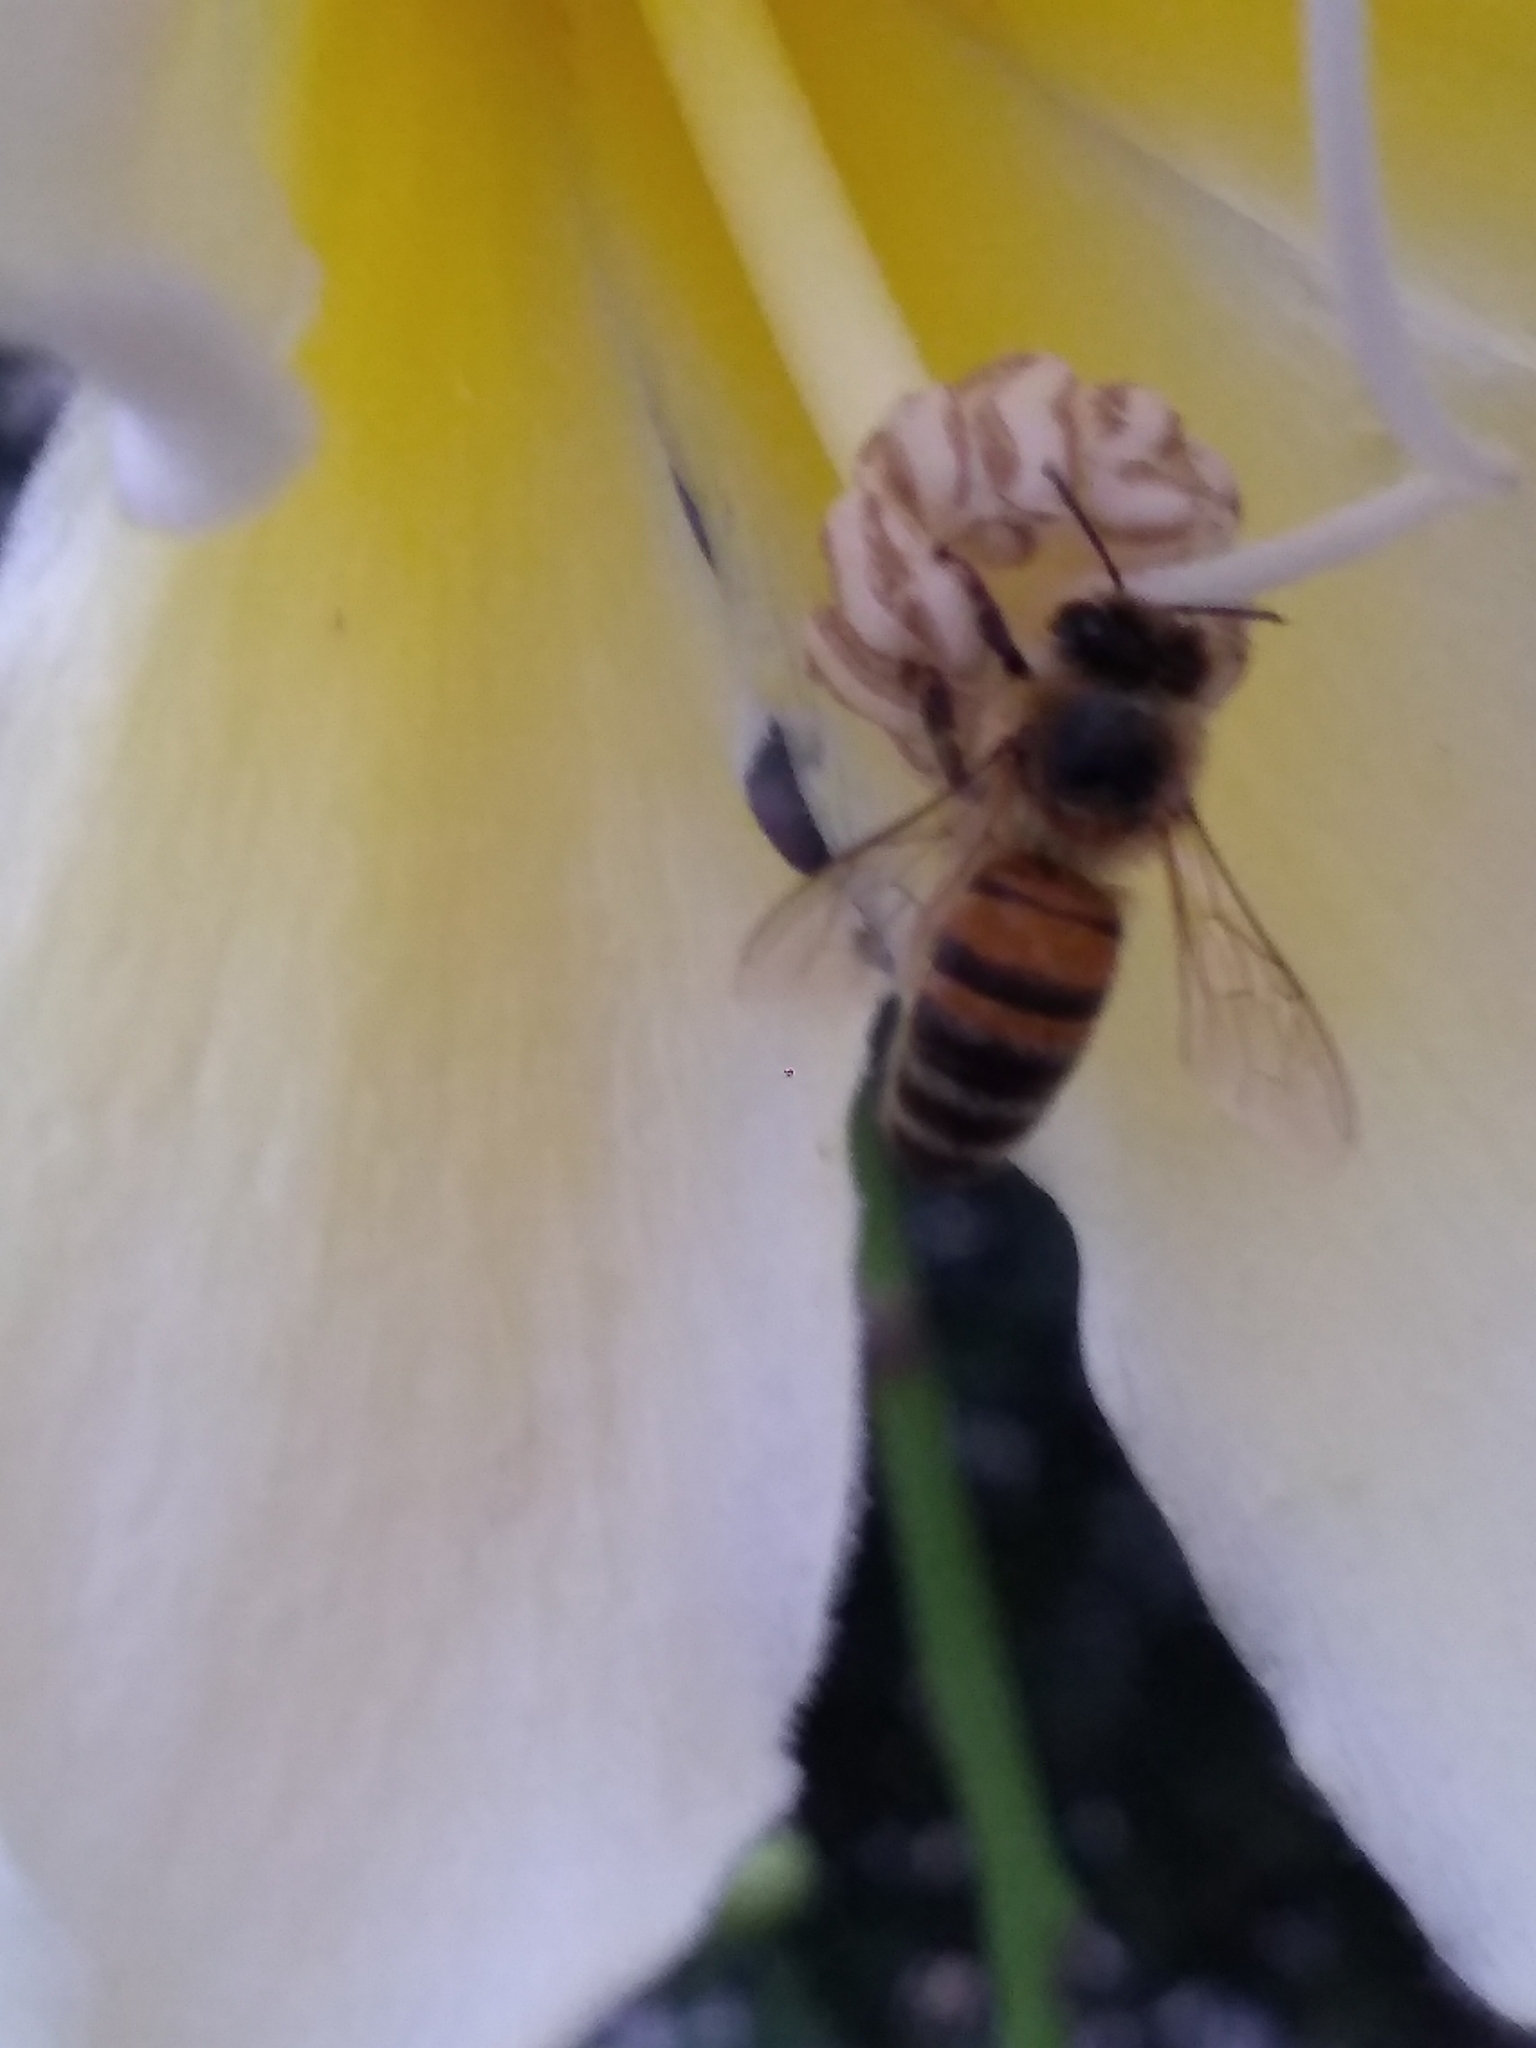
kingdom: Animalia
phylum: Arthropoda
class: Insecta
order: Hymenoptera
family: Apidae
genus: Apis
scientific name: Apis mellifera
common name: Honey bee
